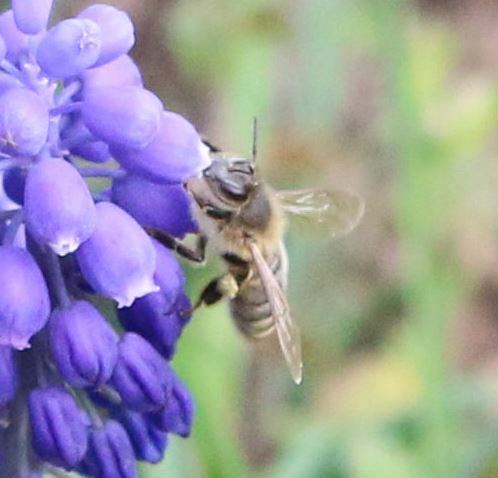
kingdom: Animalia
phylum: Arthropoda
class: Insecta
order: Hymenoptera
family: Apidae
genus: Apis
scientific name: Apis mellifera
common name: Honey bee
